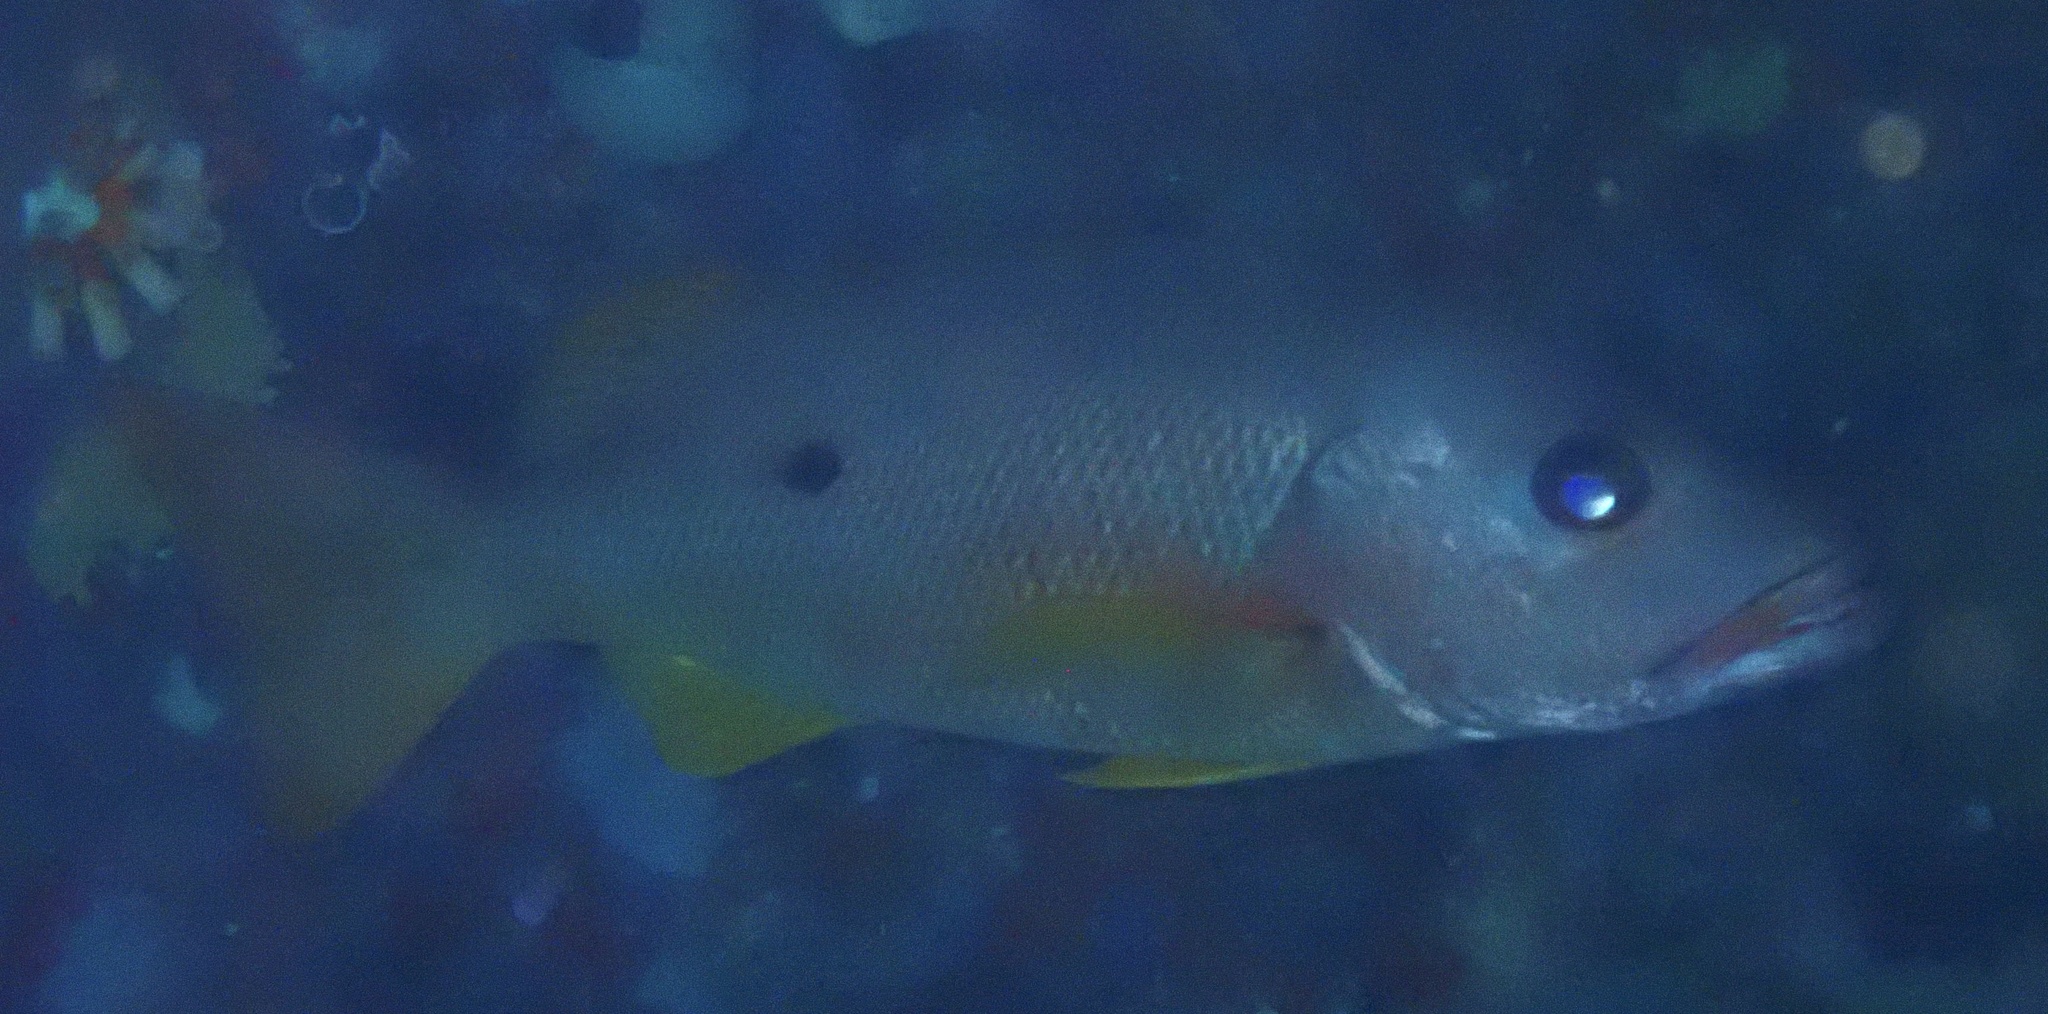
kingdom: Animalia
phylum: Chordata
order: Perciformes
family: Lutjanidae
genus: Lutjanus
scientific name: Lutjanus monostigma
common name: Onespot snapper
